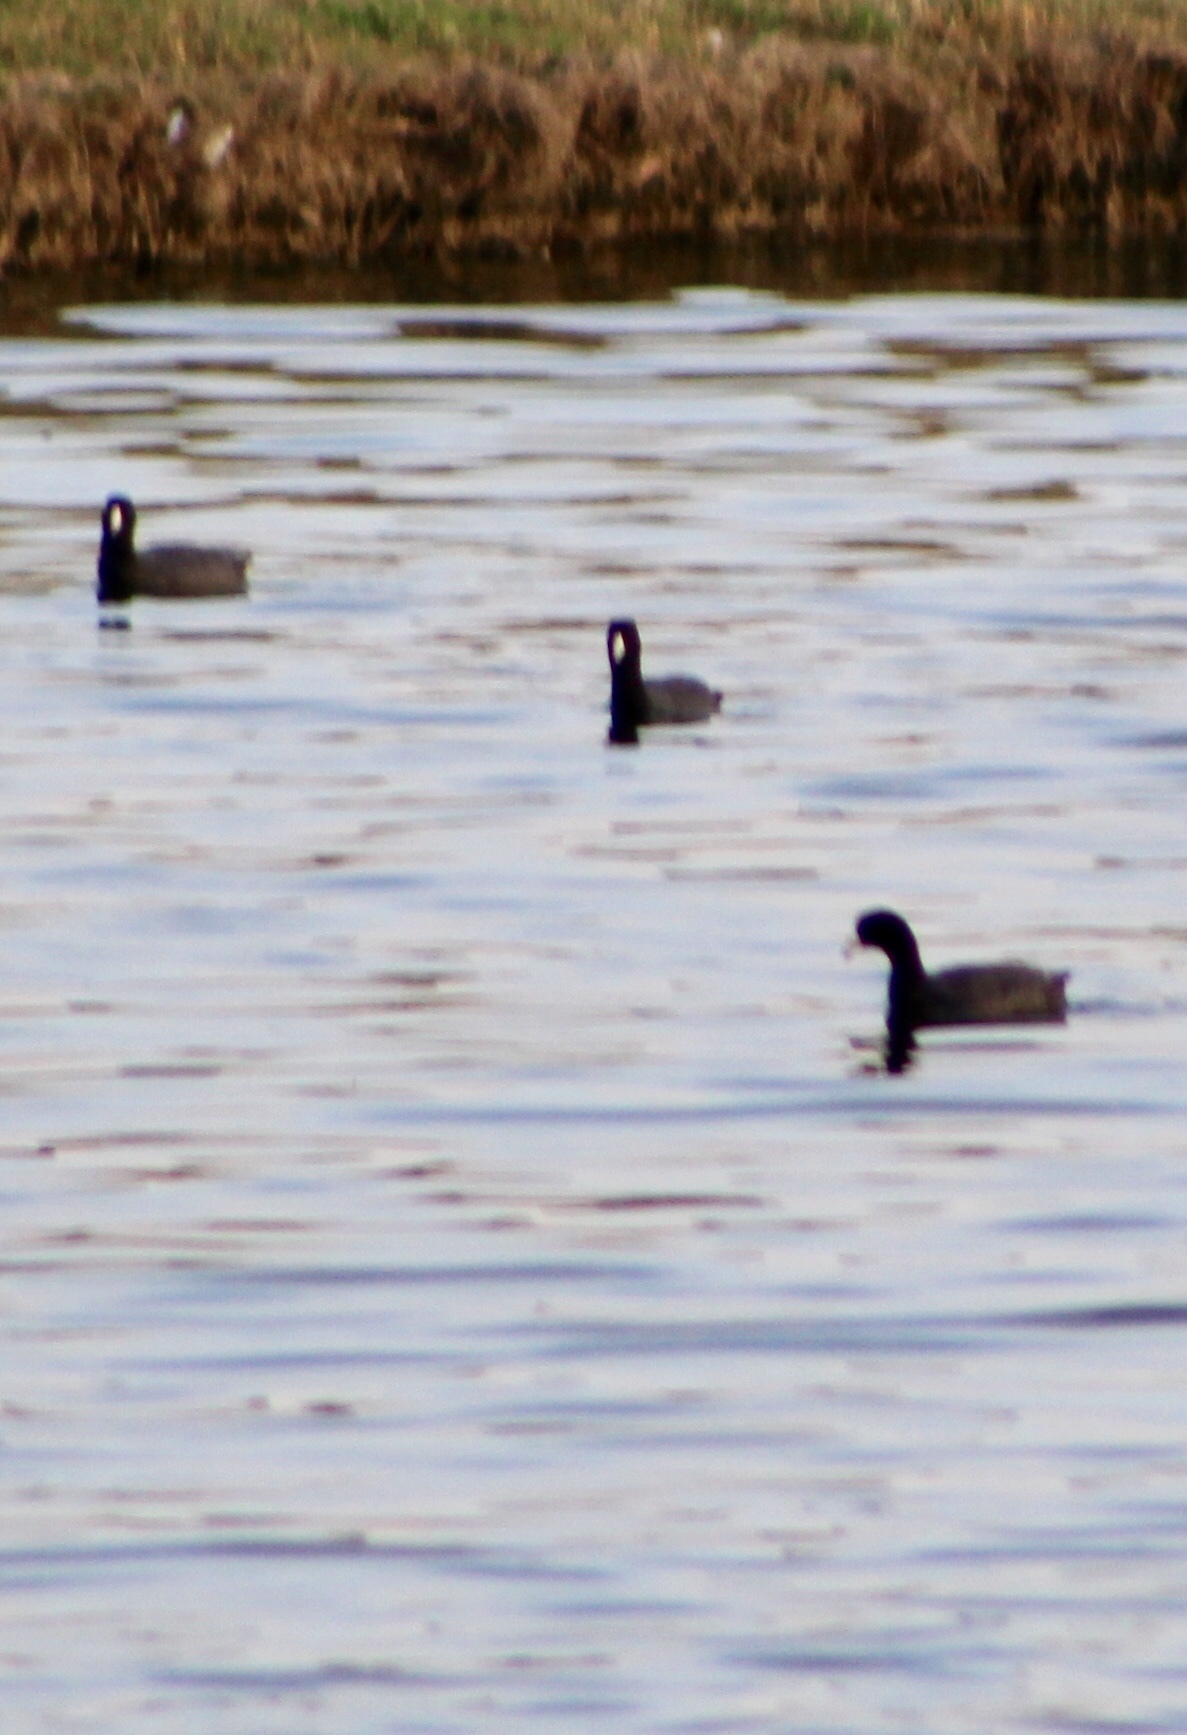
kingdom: Animalia
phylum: Chordata
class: Aves
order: Gruiformes
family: Rallidae
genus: Fulica
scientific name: Fulica americana
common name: American coot
